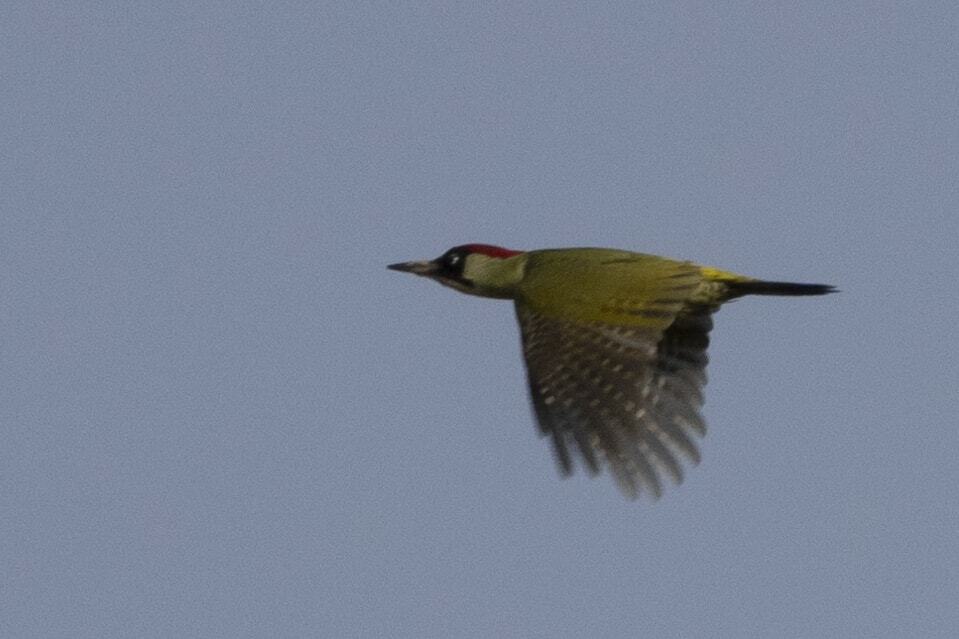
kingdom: Animalia
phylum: Chordata
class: Aves
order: Piciformes
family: Picidae
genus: Picus
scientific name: Picus viridis
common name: European green woodpecker
